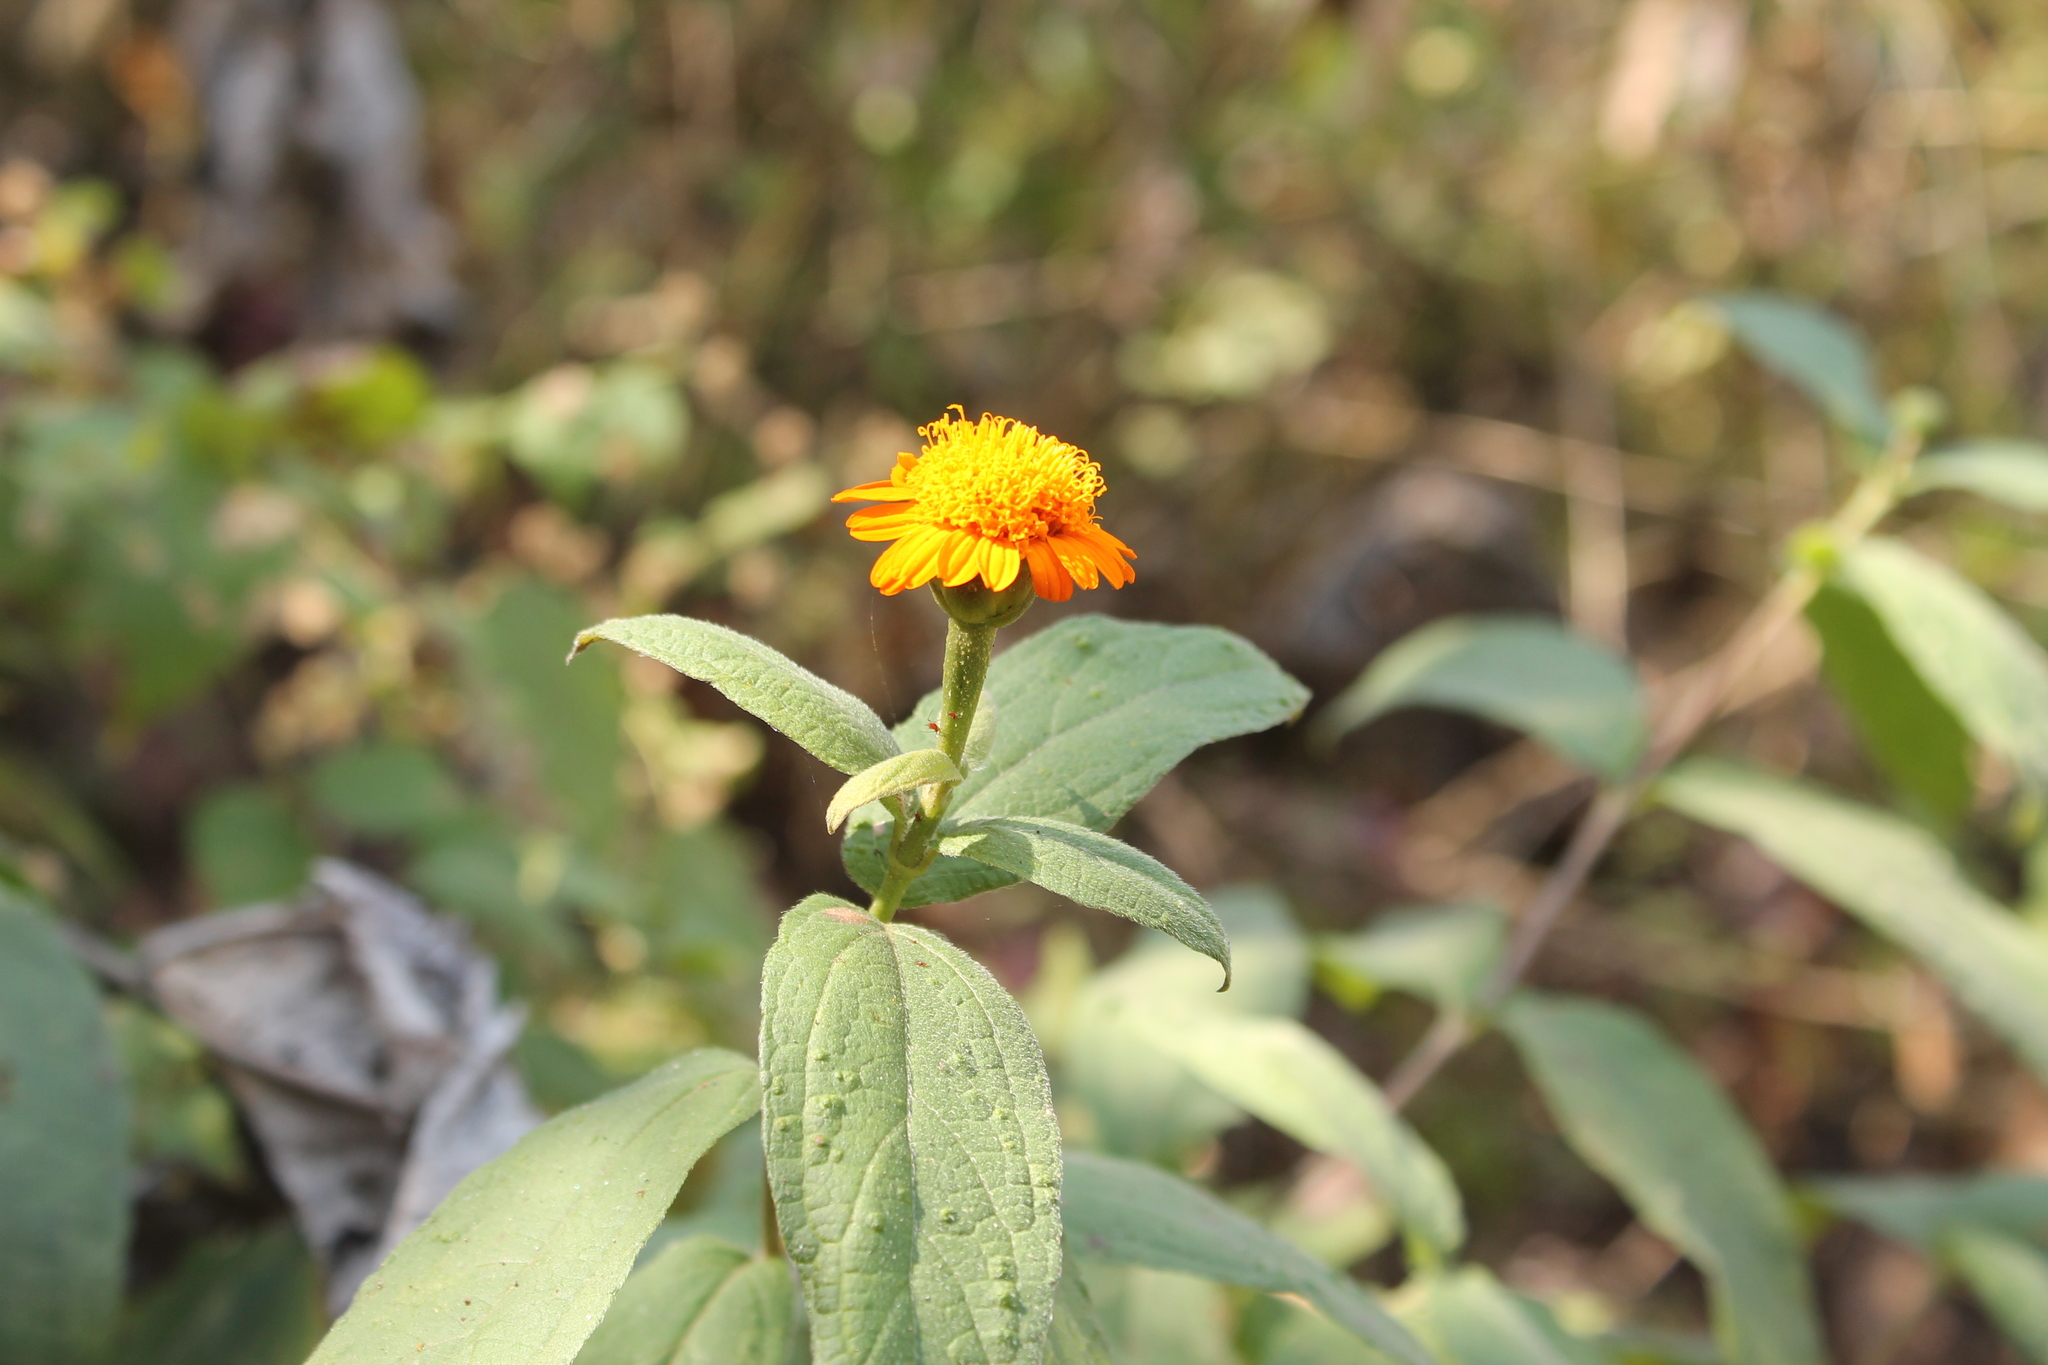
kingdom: Plantae
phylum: Tracheophyta
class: Magnoliopsida
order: Asterales
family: Asteraceae
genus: Lasianthaea
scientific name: Lasianthaea macrocephala
